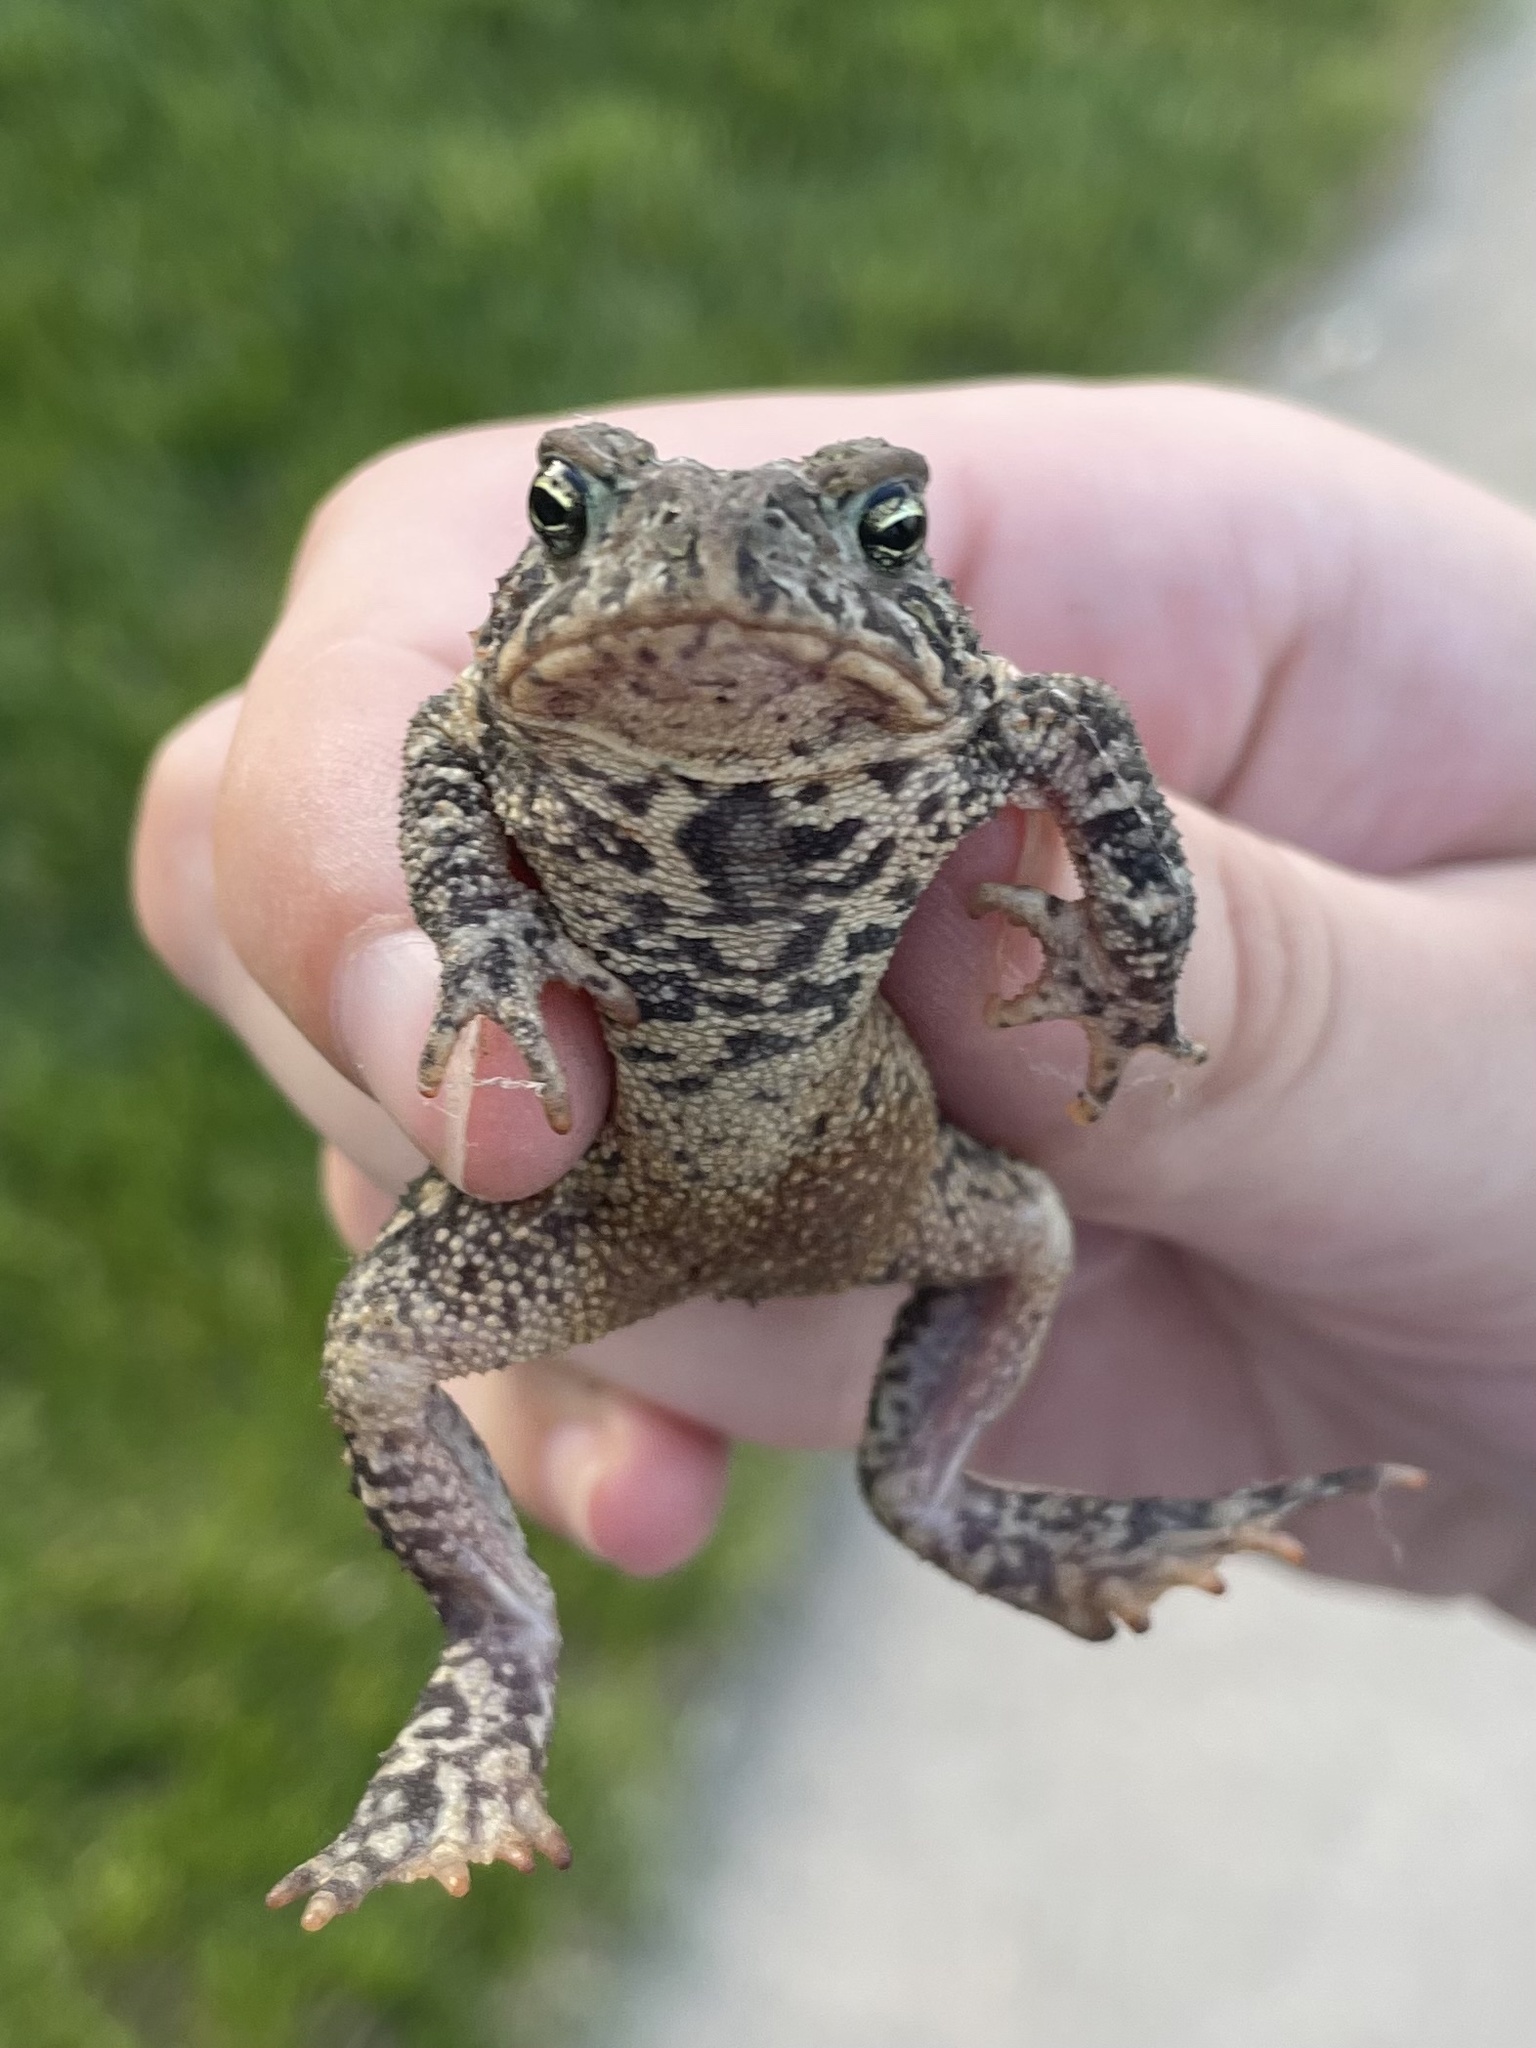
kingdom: Animalia
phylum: Chordata
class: Amphibia
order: Anura
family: Bufonidae
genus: Anaxyrus
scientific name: Anaxyrus americanus
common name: American toad
